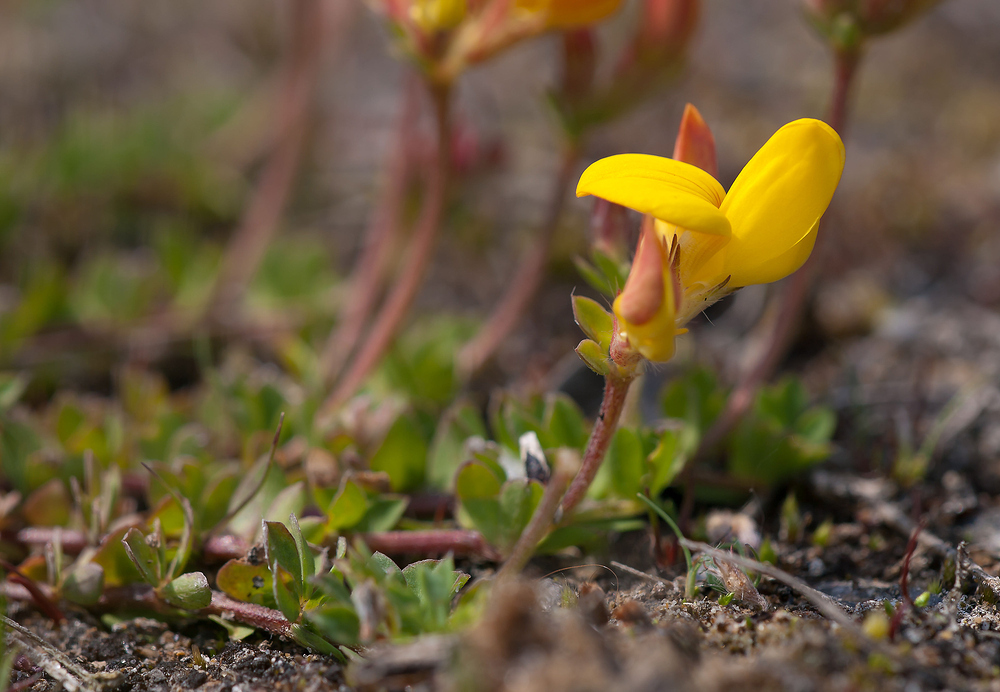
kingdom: Plantae
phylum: Tracheophyta
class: Magnoliopsida
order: Fabales
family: Fabaceae
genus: Lotus
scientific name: Lotus corniculatus
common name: Common bird's-foot-trefoil
